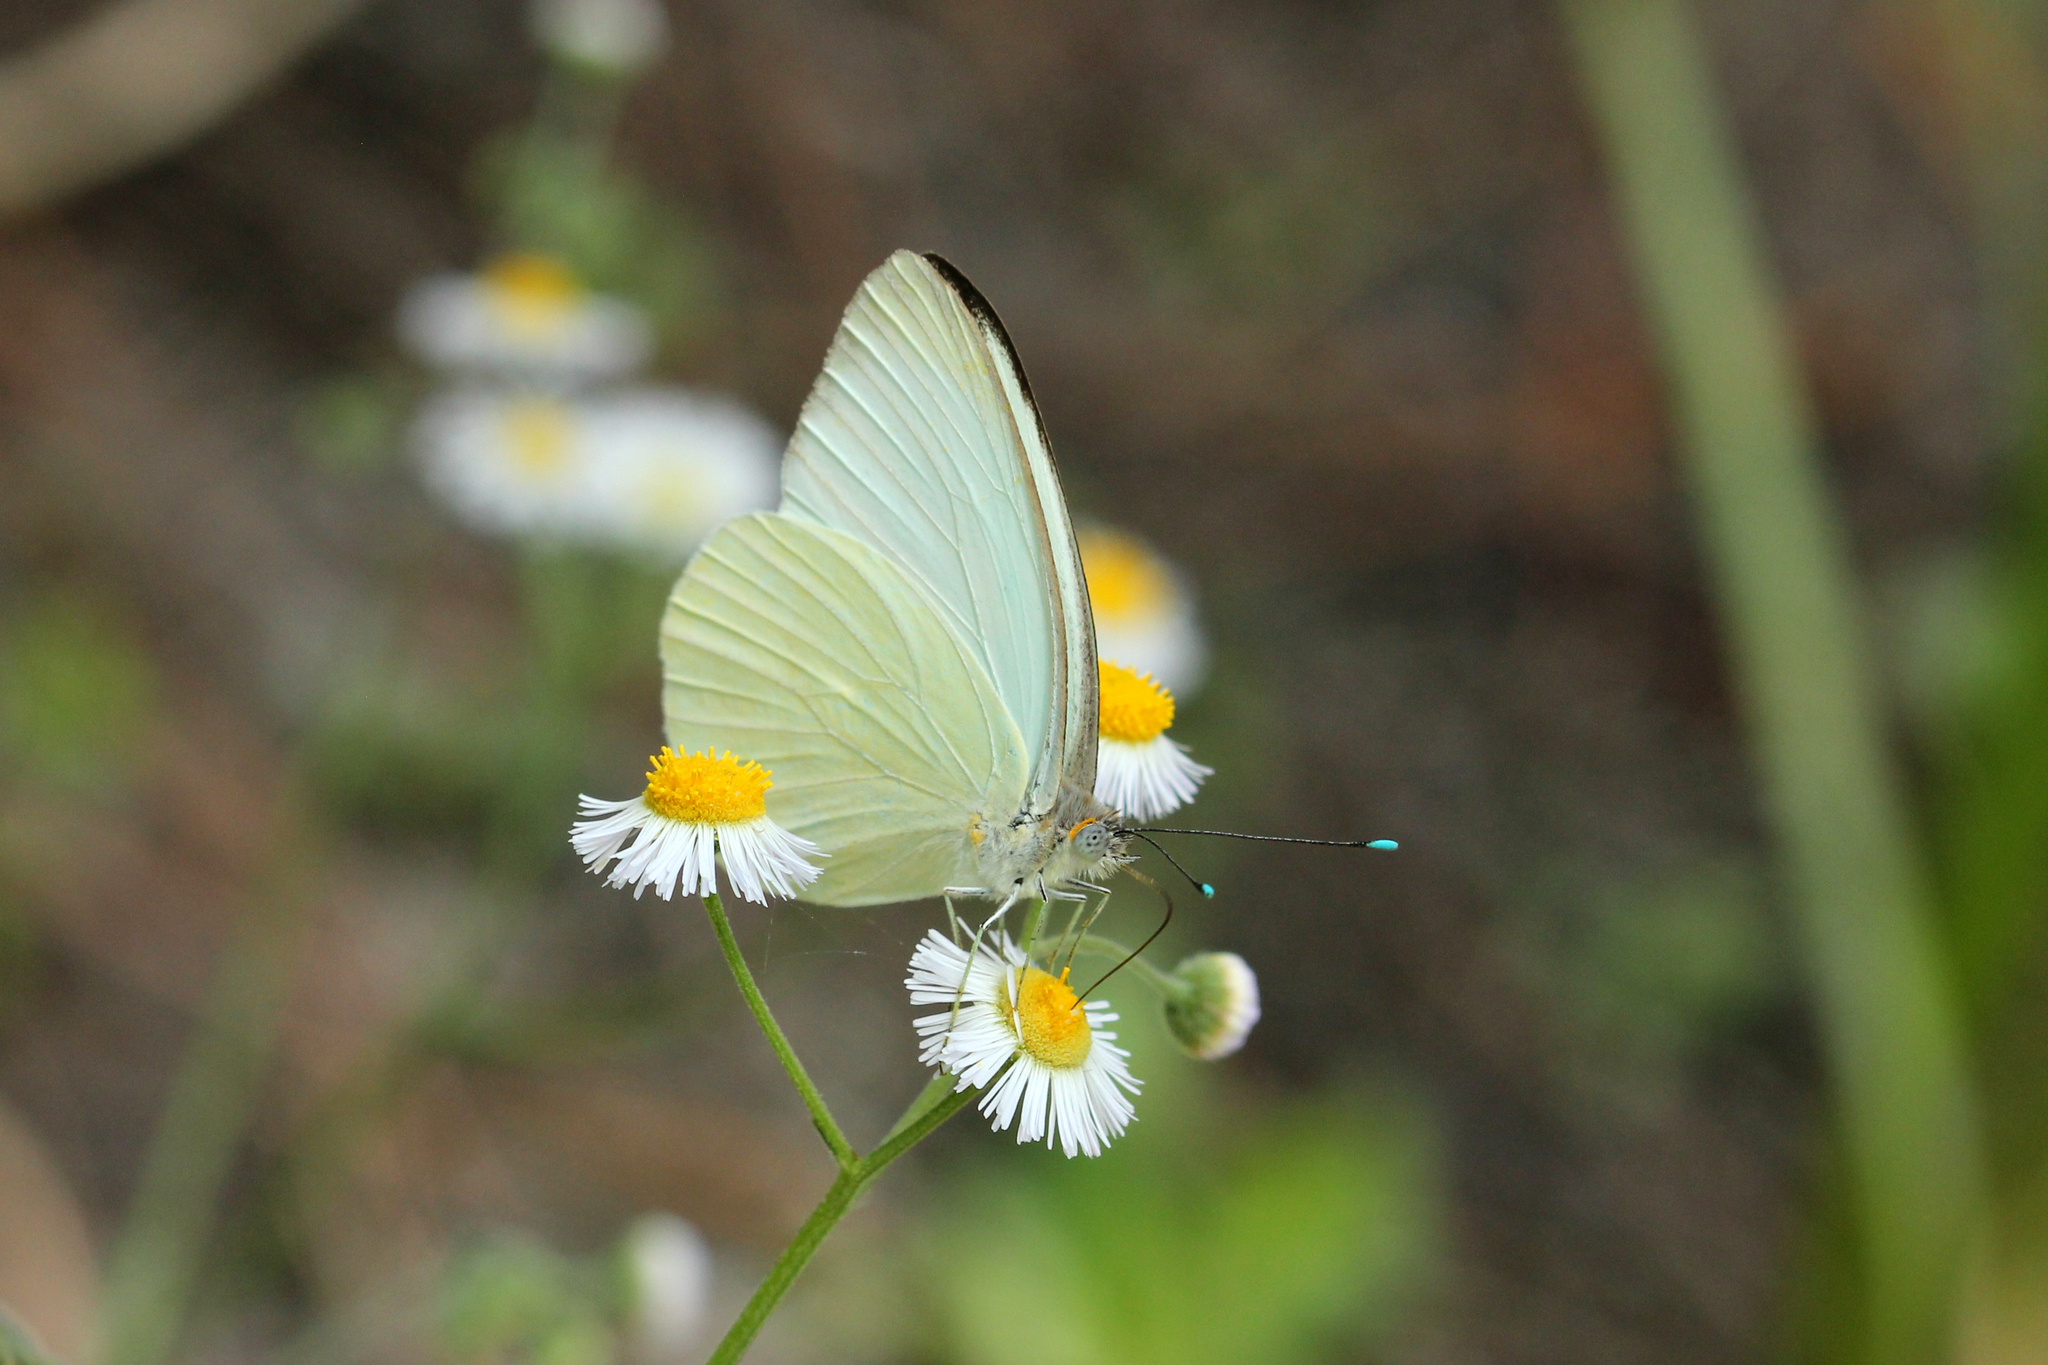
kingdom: Animalia
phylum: Arthropoda
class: Insecta
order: Lepidoptera
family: Pieridae
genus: Ascia
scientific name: Ascia monuste
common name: Great southern white
